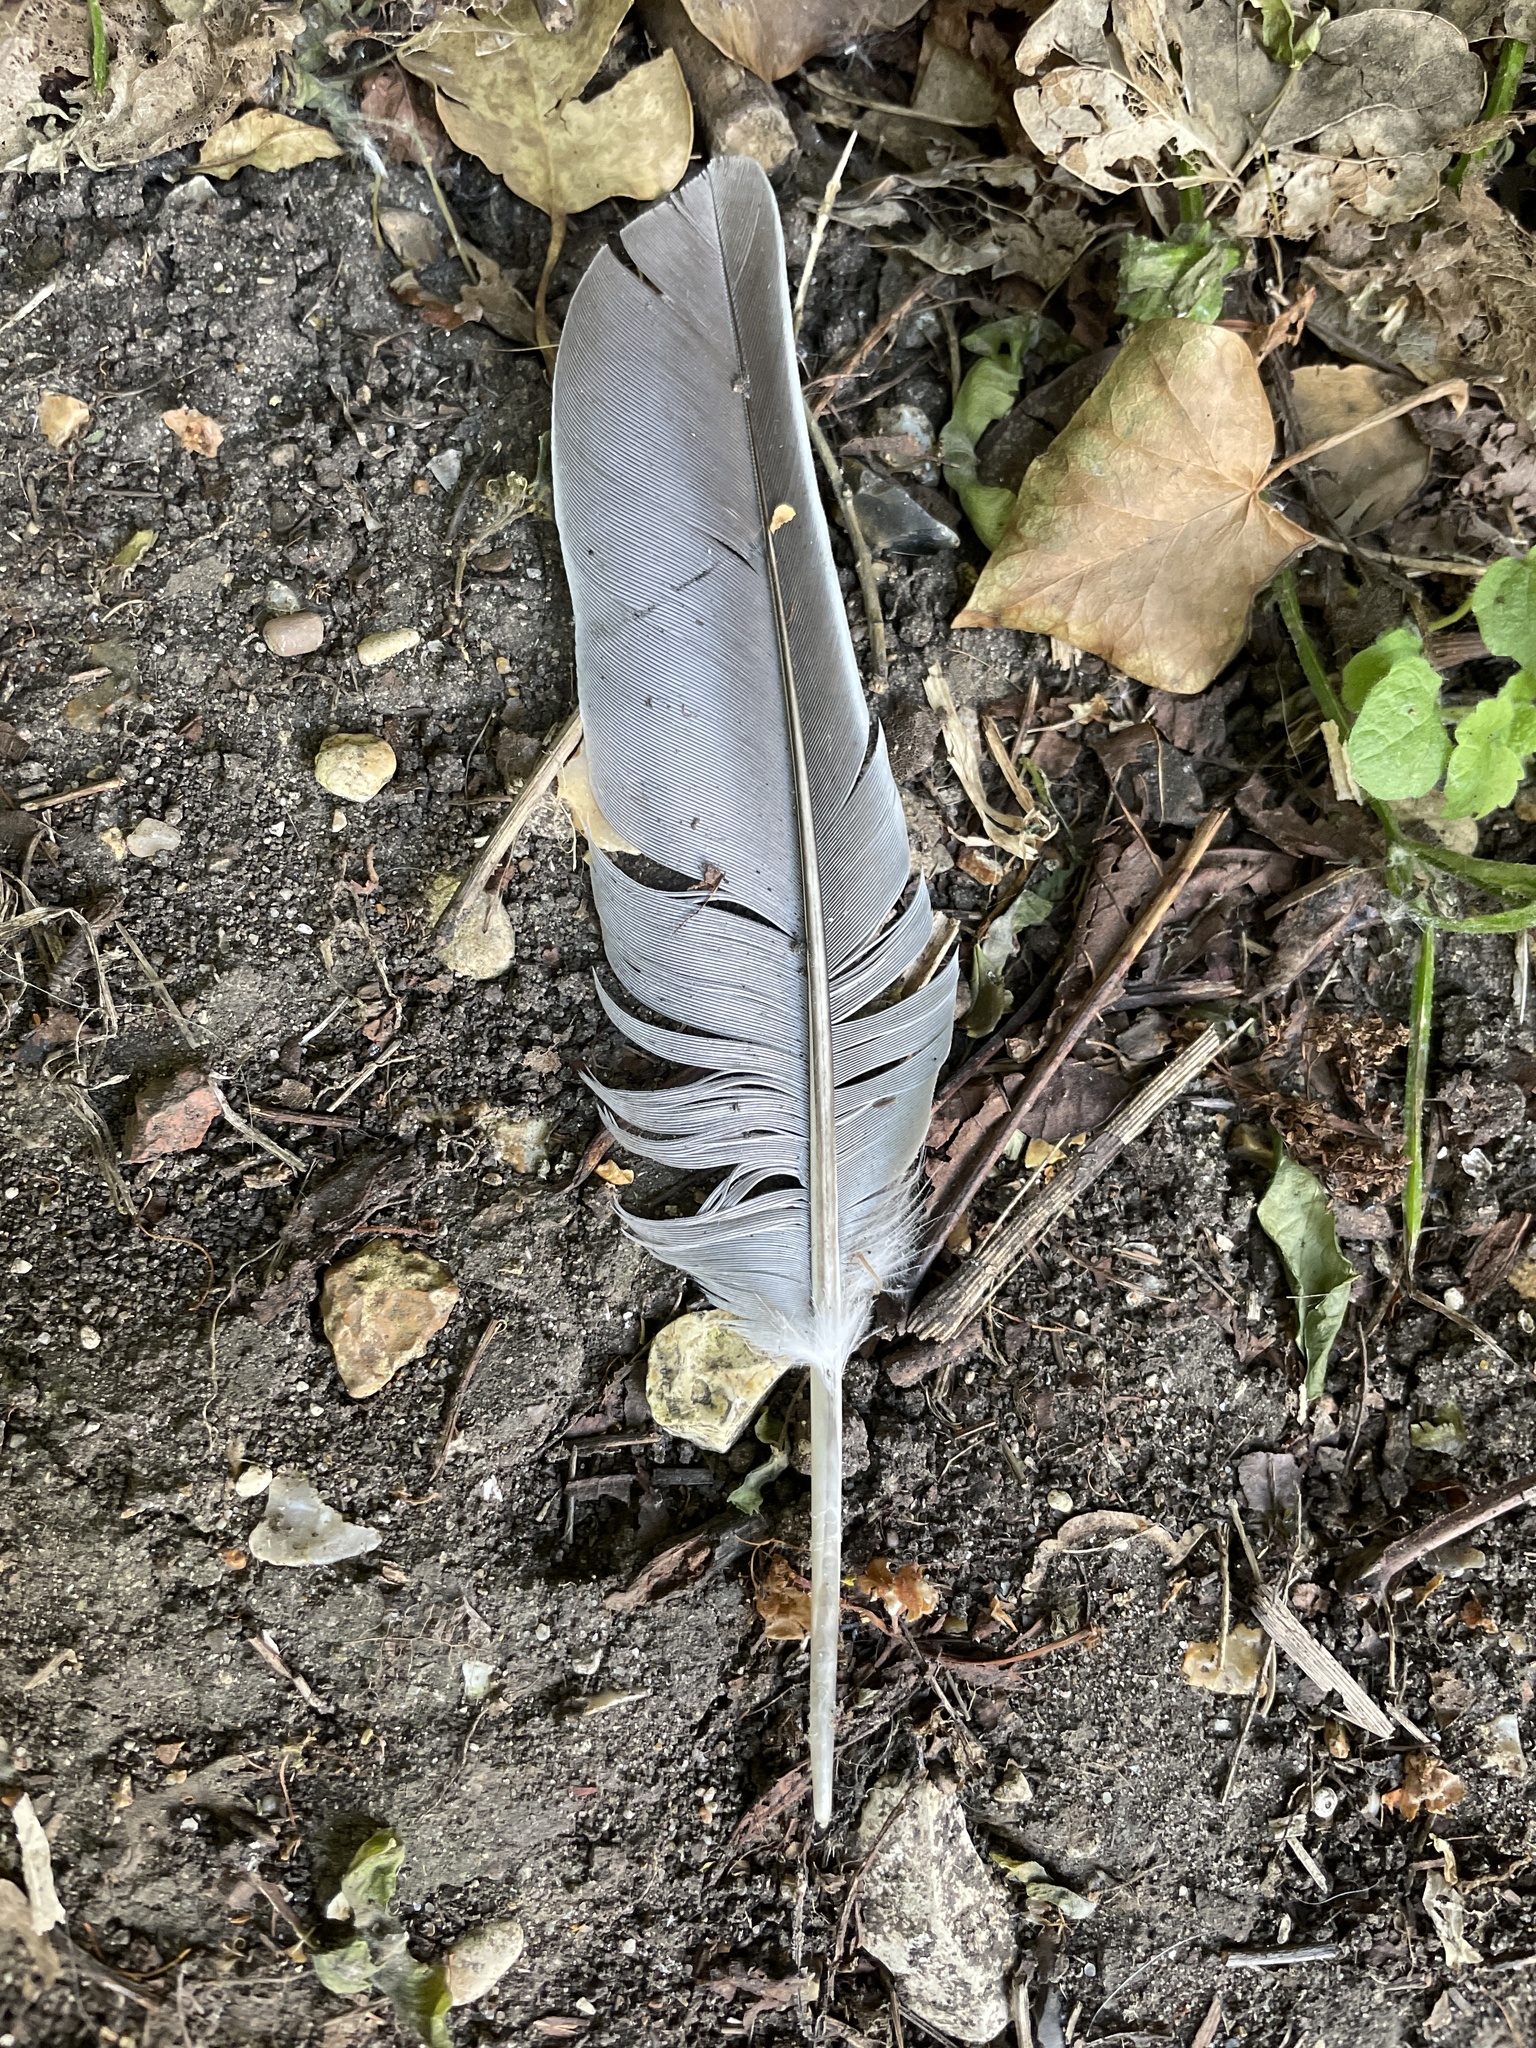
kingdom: Animalia
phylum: Chordata
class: Aves
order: Columbiformes
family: Columbidae
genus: Columba
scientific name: Columba palumbus
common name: Common wood pigeon
